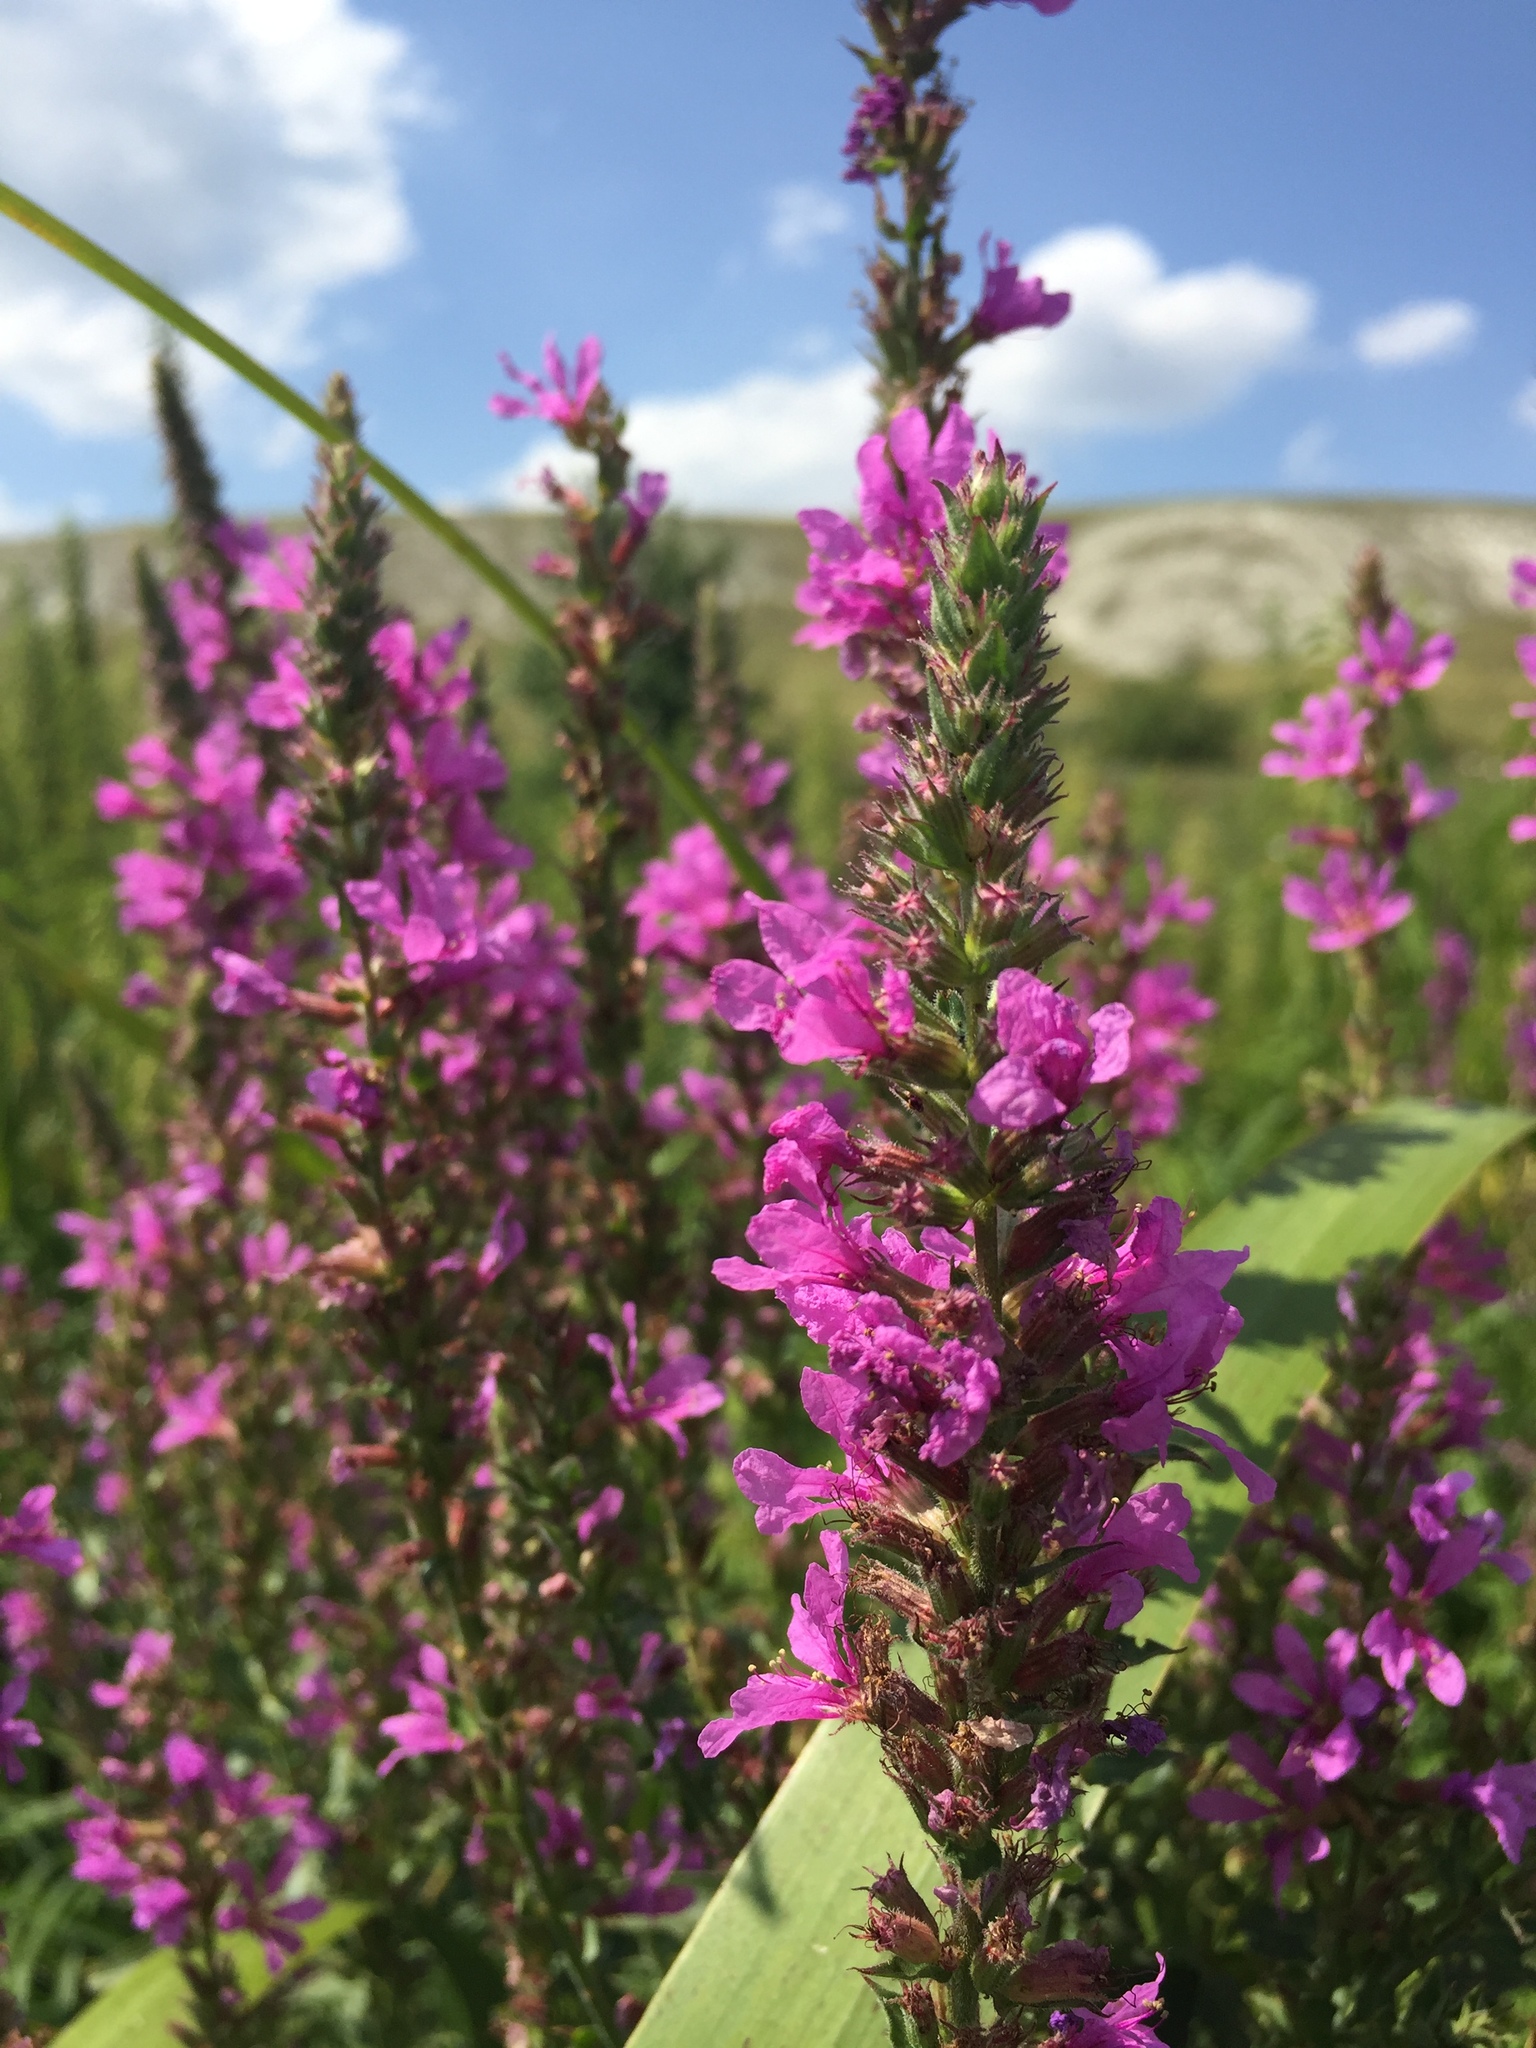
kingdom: Plantae
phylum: Tracheophyta
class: Magnoliopsida
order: Myrtales
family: Lythraceae
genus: Lythrum
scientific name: Lythrum salicaria
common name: Purple loosestrife
